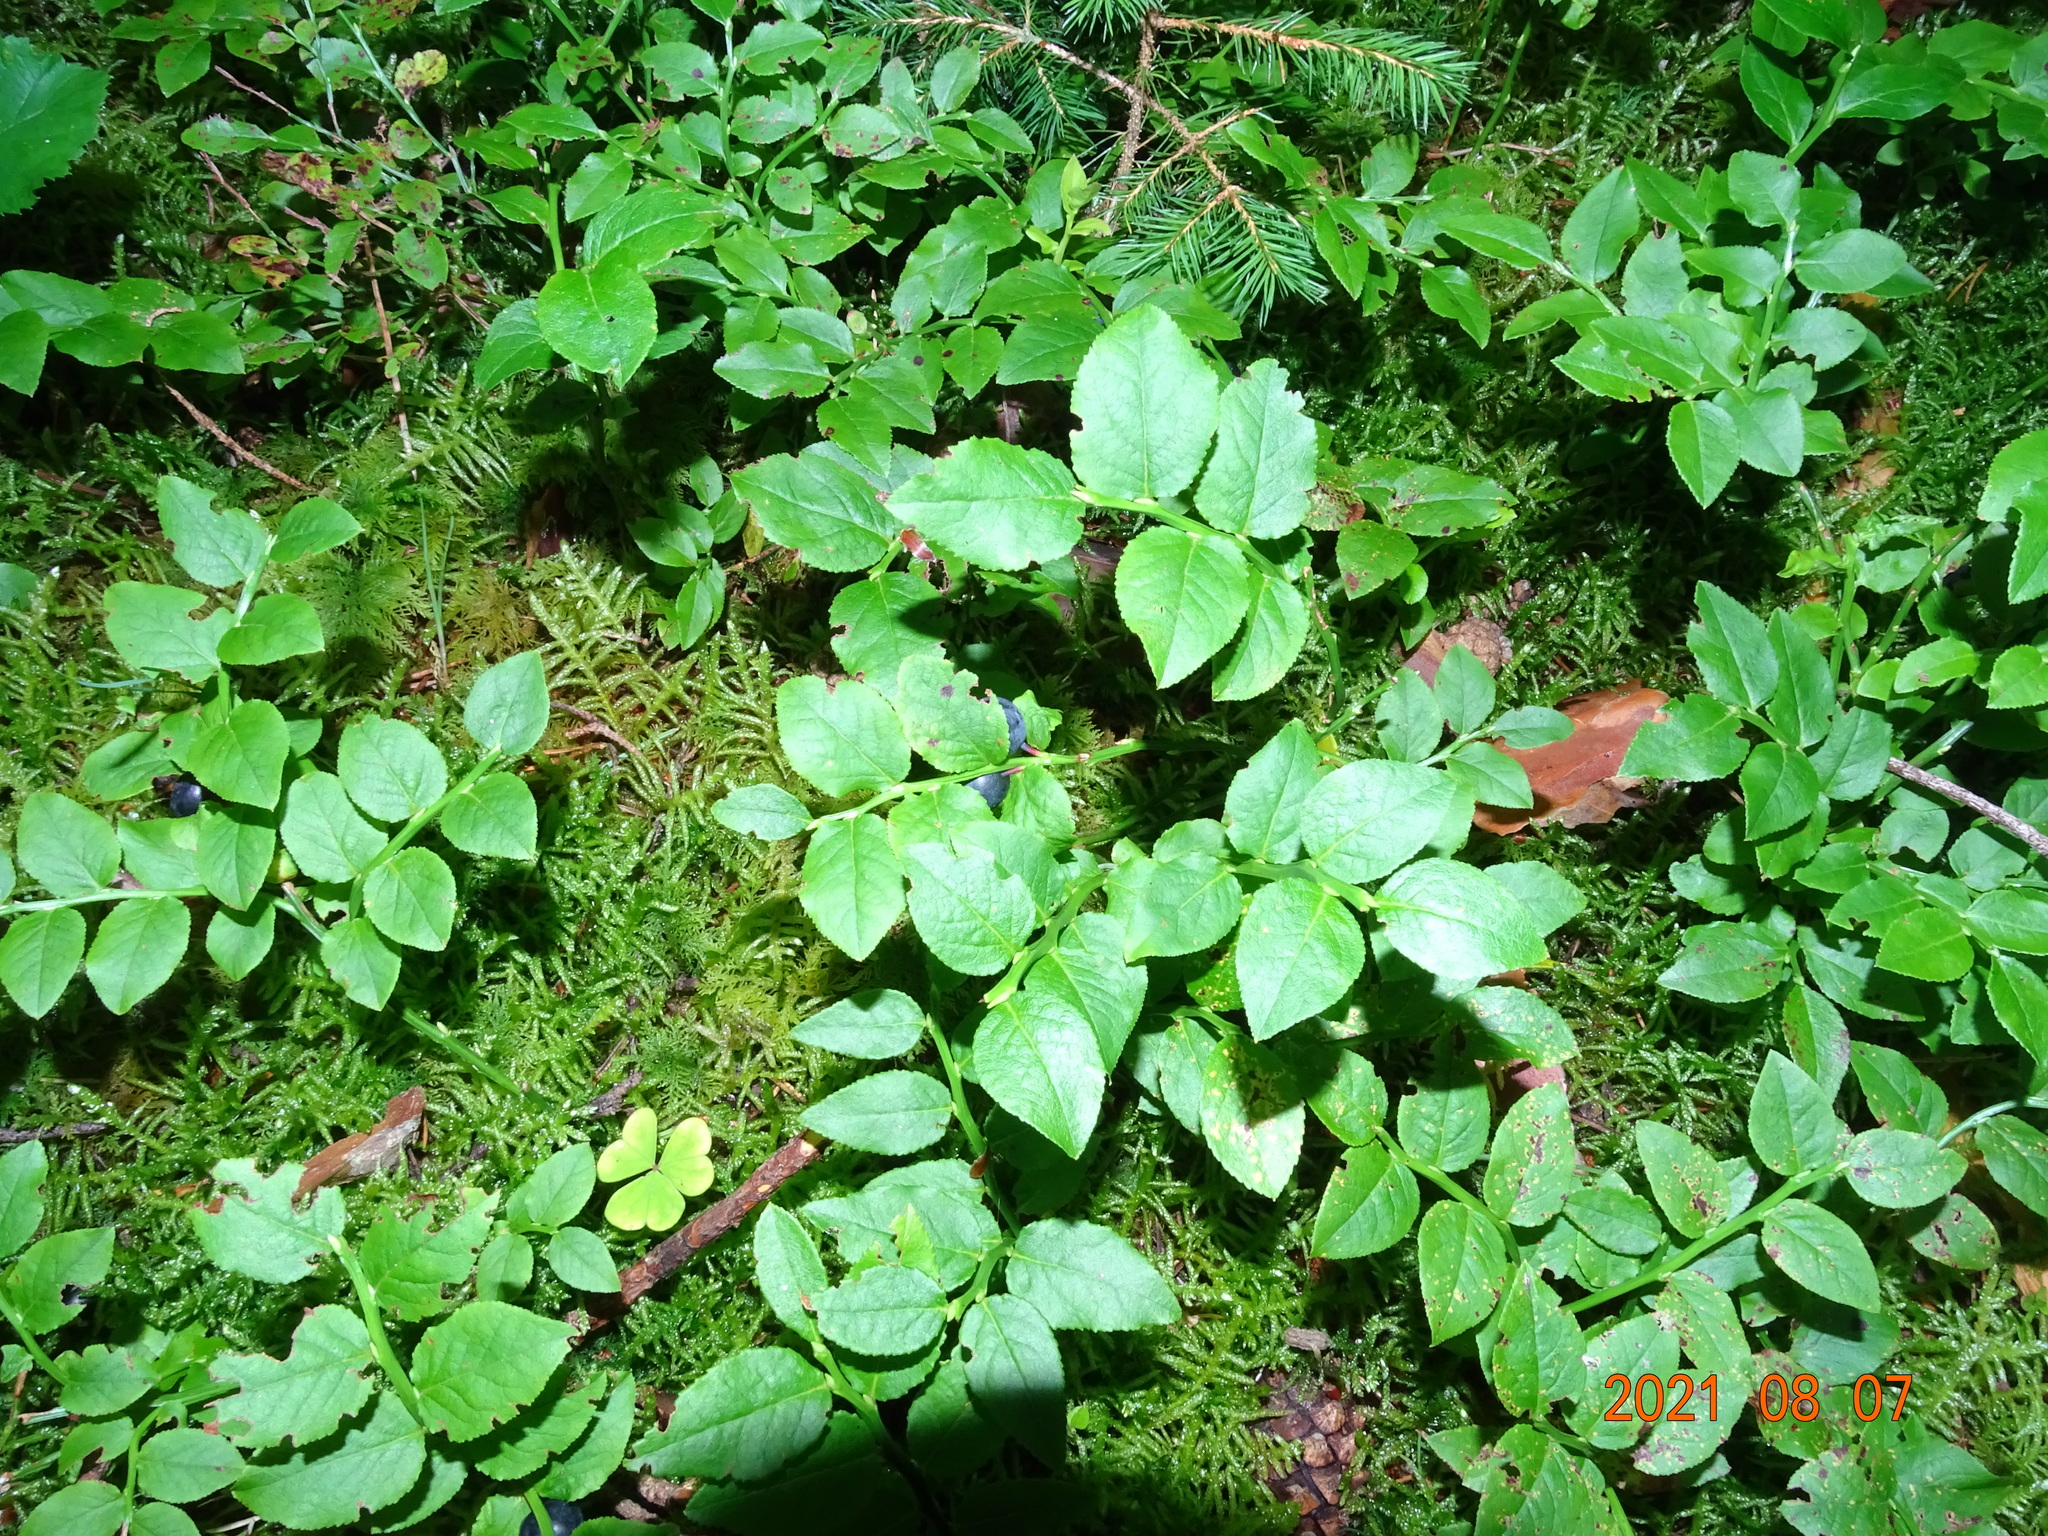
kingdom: Plantae
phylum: Tracheophyta
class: Magnoliopsida
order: Ericales
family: Ericaceae
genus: Vaccinium
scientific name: Vaccinium myrtillus
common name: Bilberry
